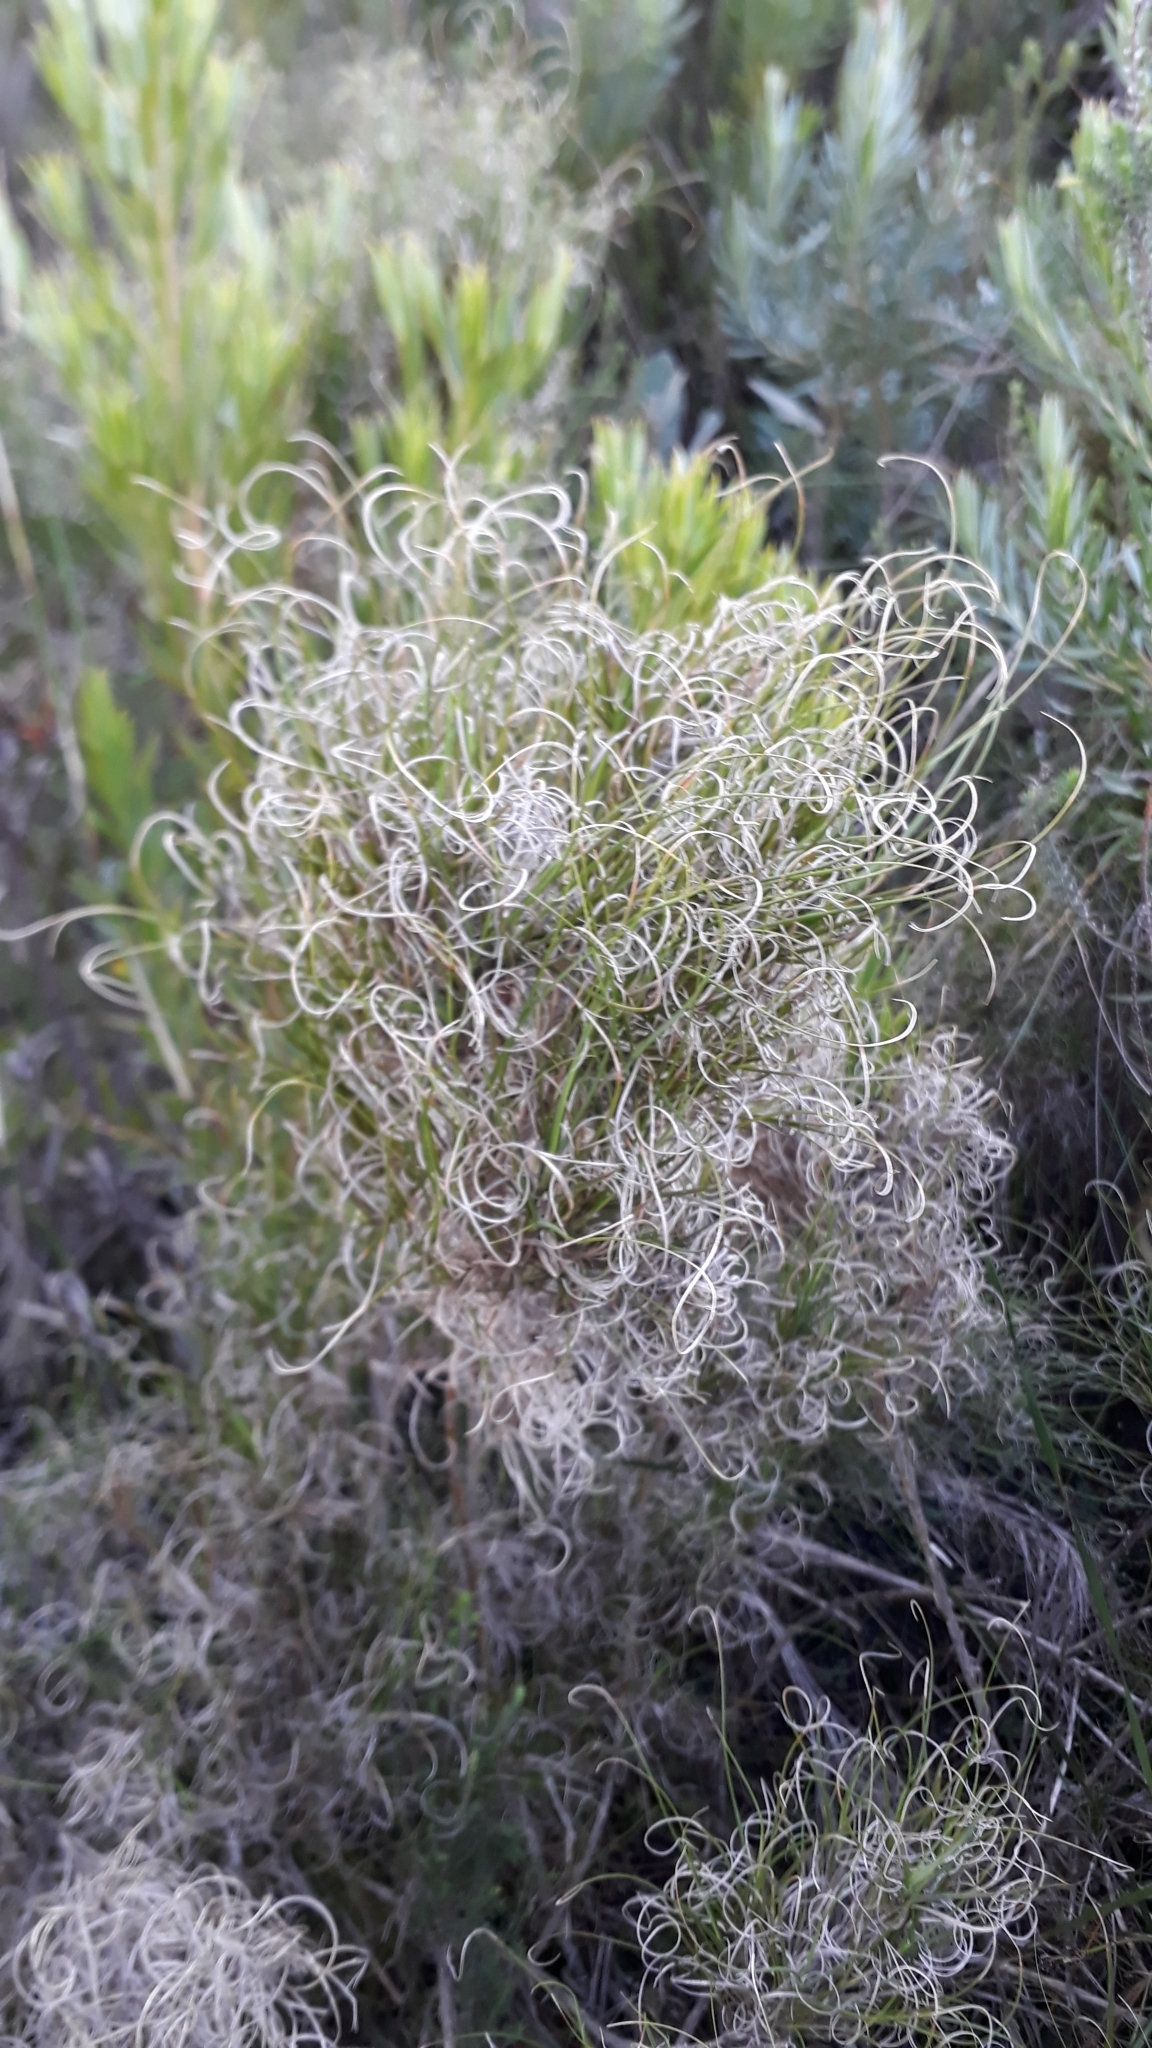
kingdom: Plantae
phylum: Tracheophyta
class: Liliopsida
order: Poales
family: Poaceae
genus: Pseudopentameris
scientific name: Pseudopentameris macrantha
